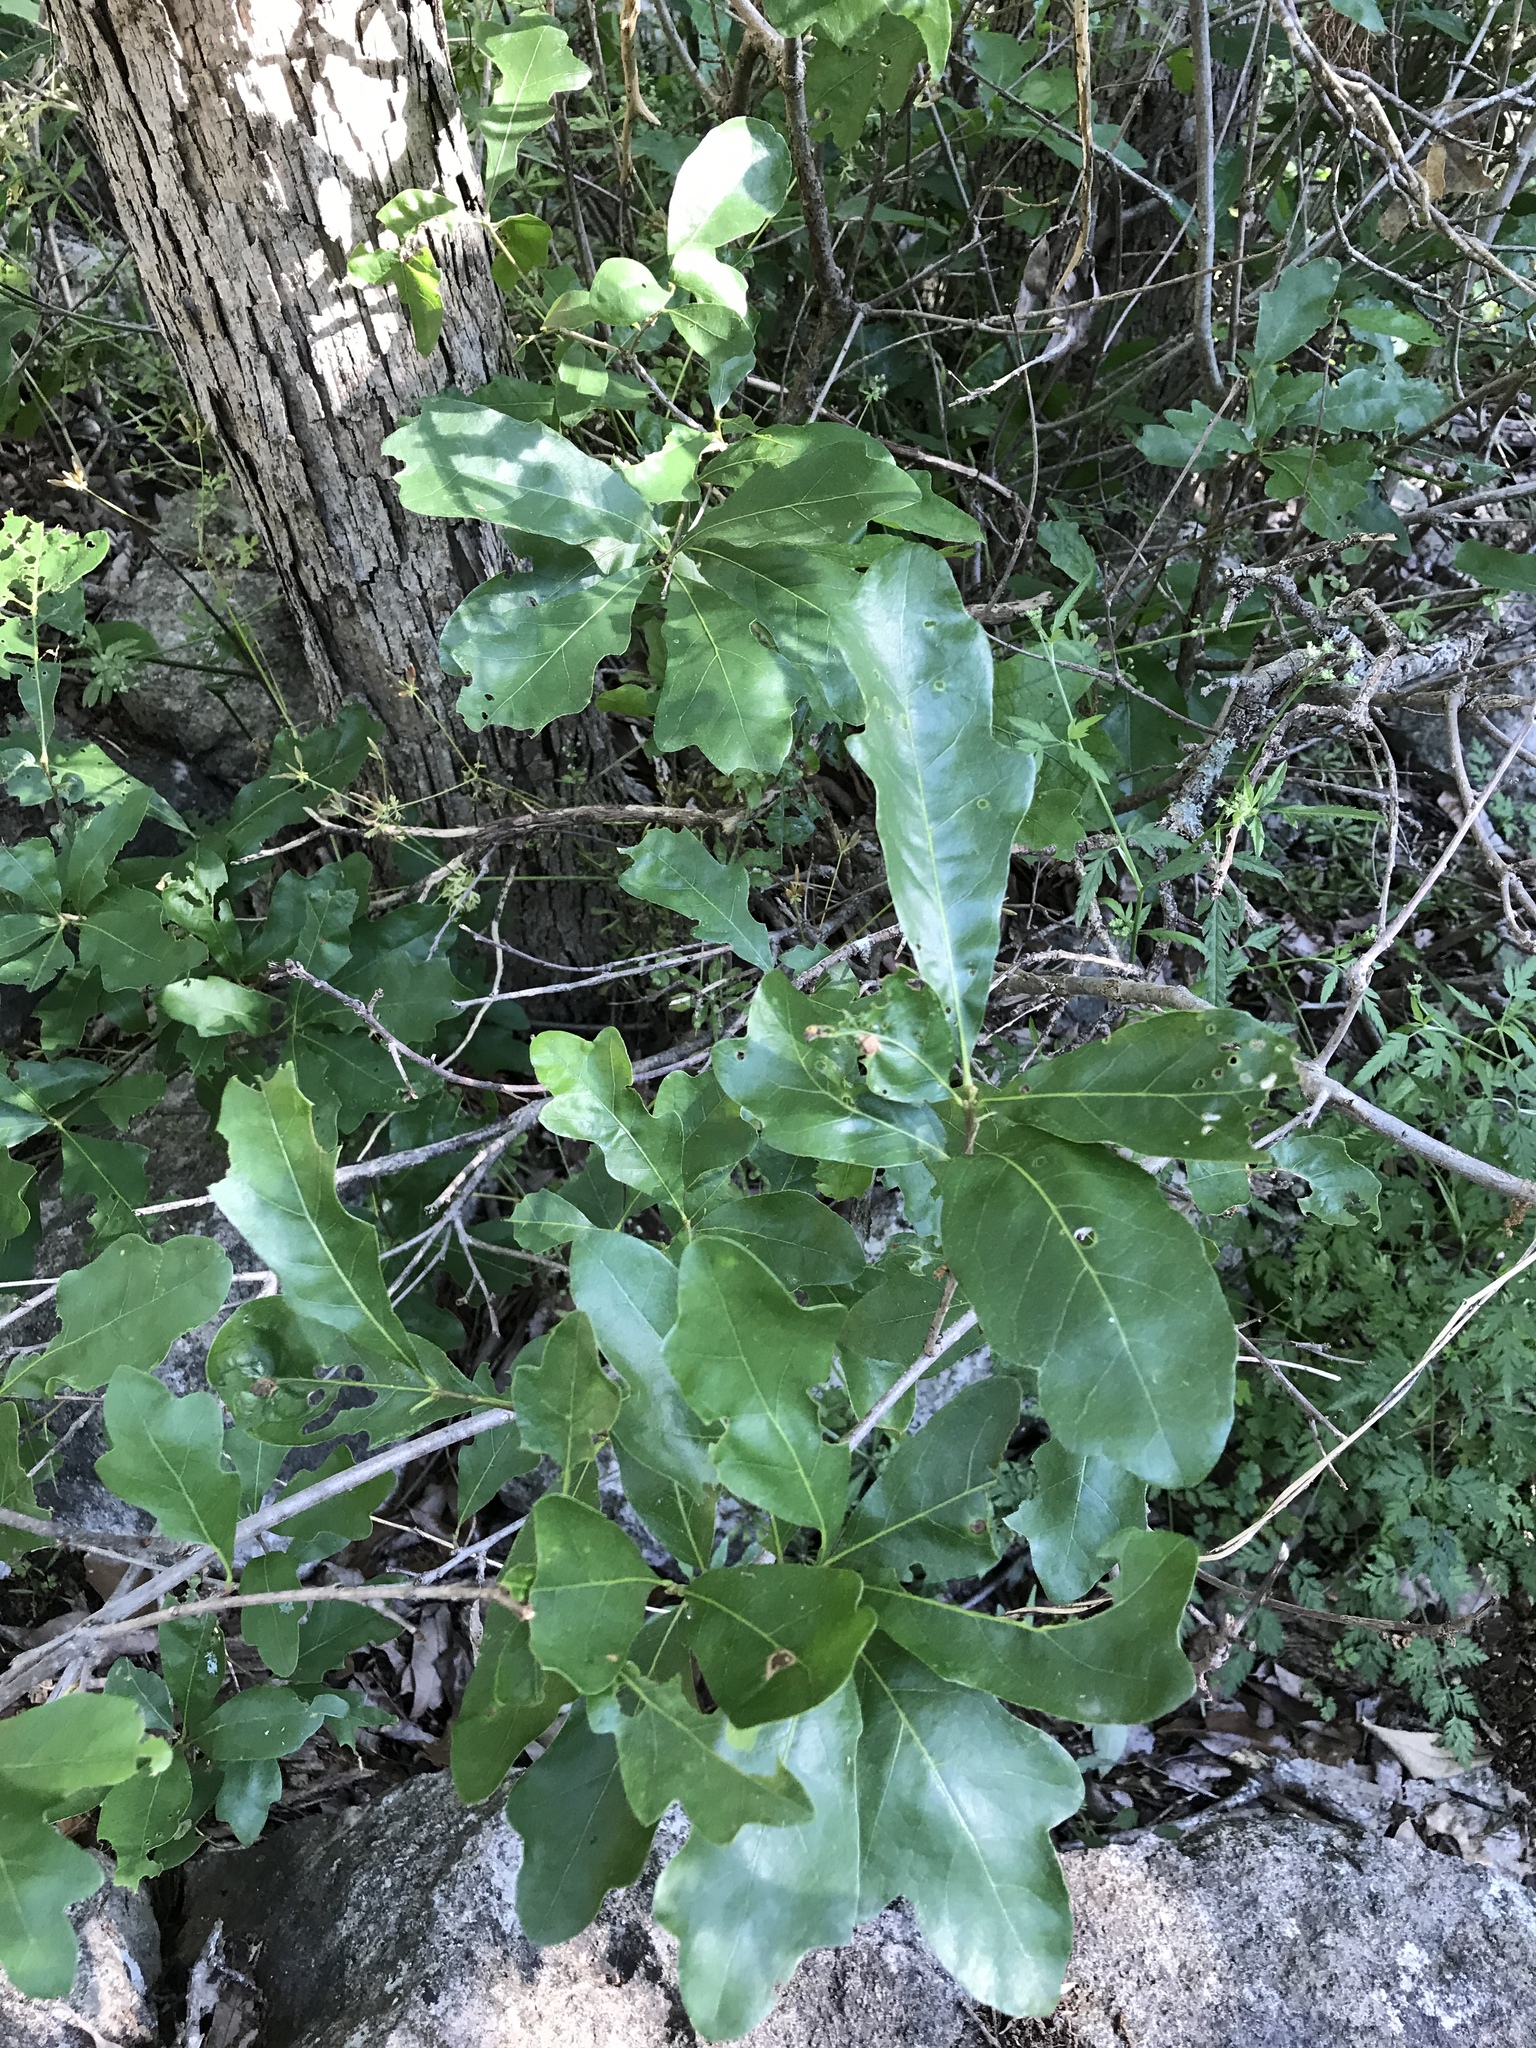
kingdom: Plantae
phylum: Tracheophyta
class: Magnoliopsida
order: Fagales
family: Fagaceae
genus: Quercus
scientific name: Quercus sinuata
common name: Durand oak
